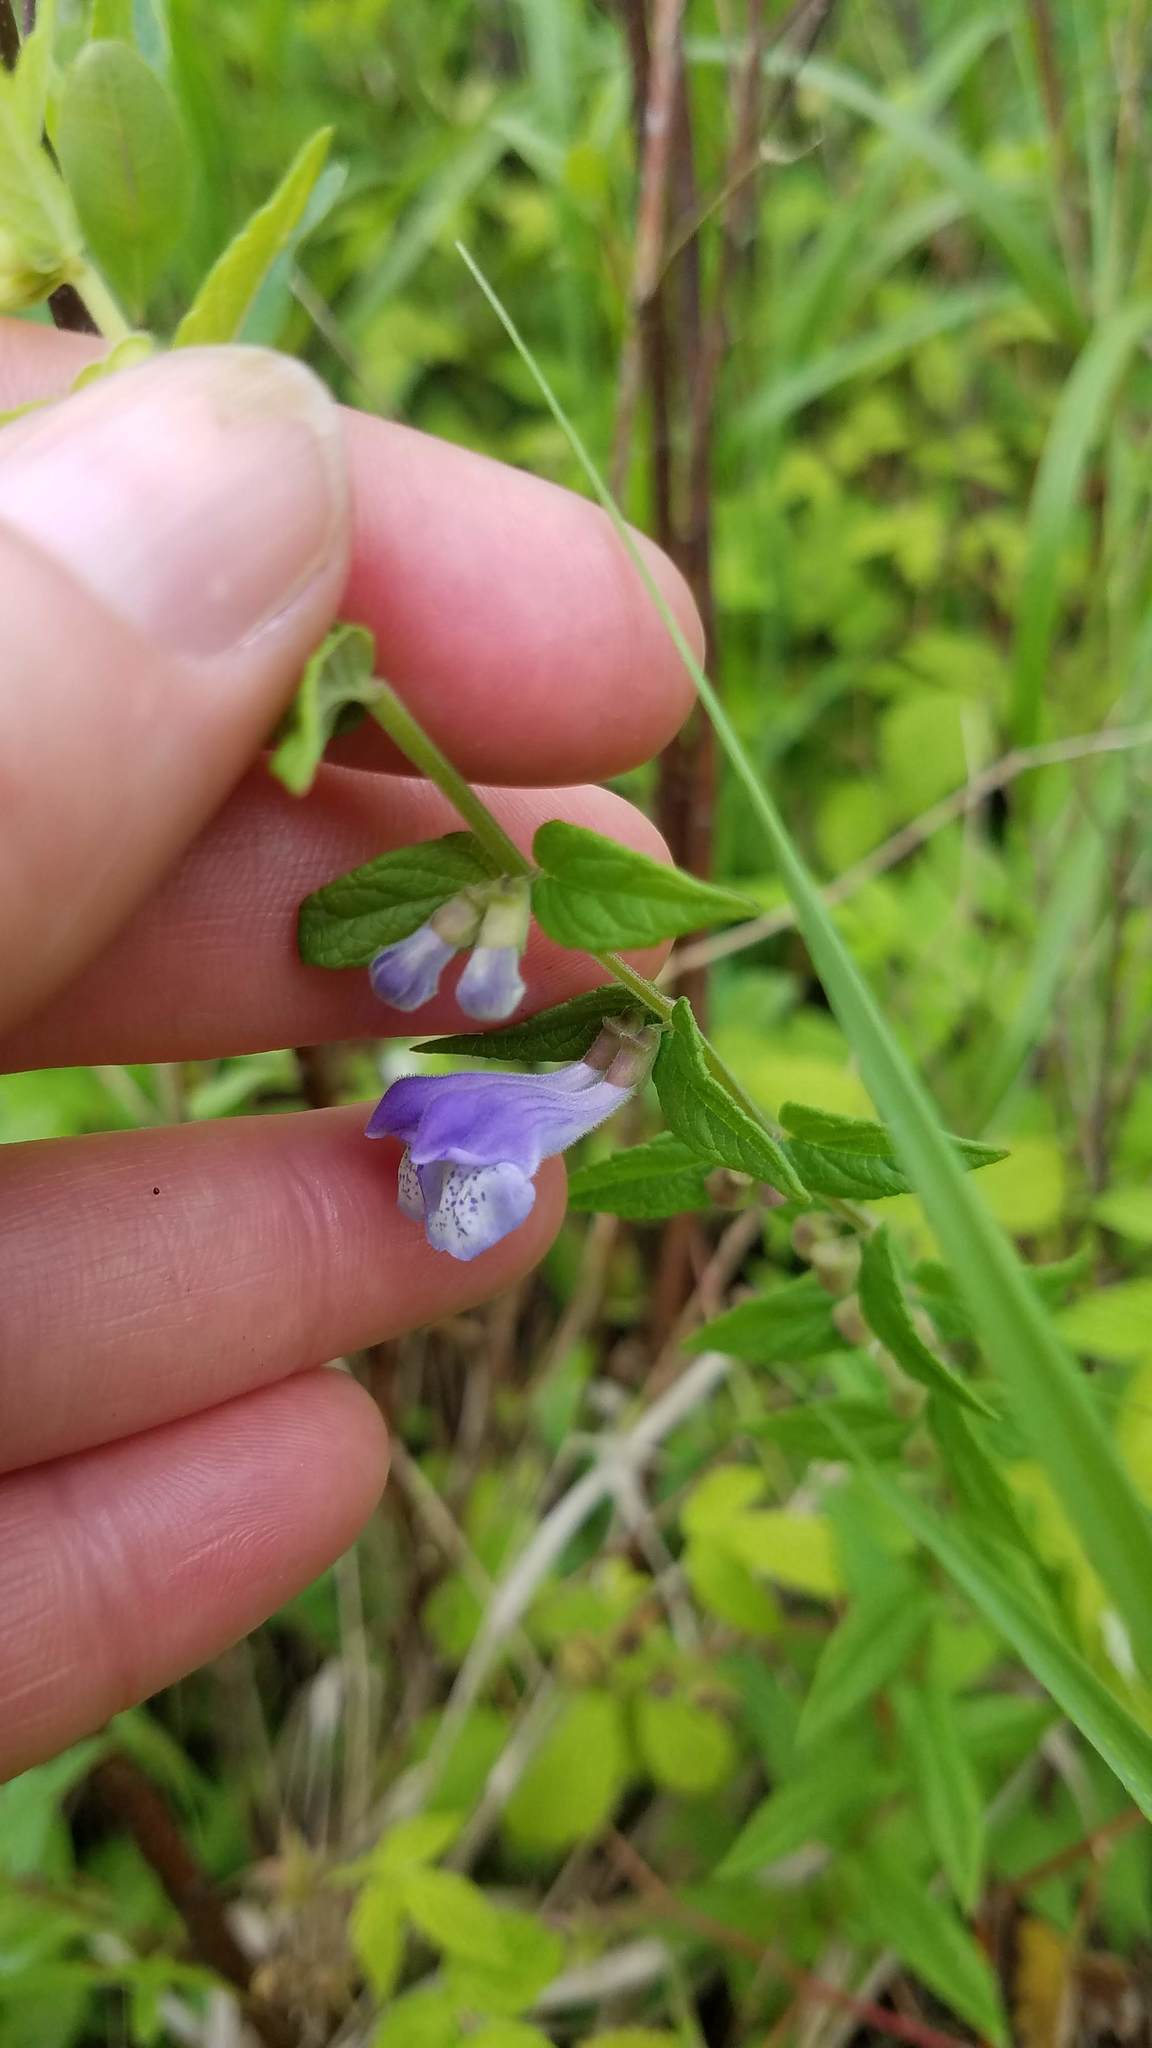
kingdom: Plantae
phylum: Tracheophyta
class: Magnoliopsida
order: Lamiales
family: Lamiaceae
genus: Scutellaria
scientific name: Scutellaria galericulata
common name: Skullcap
